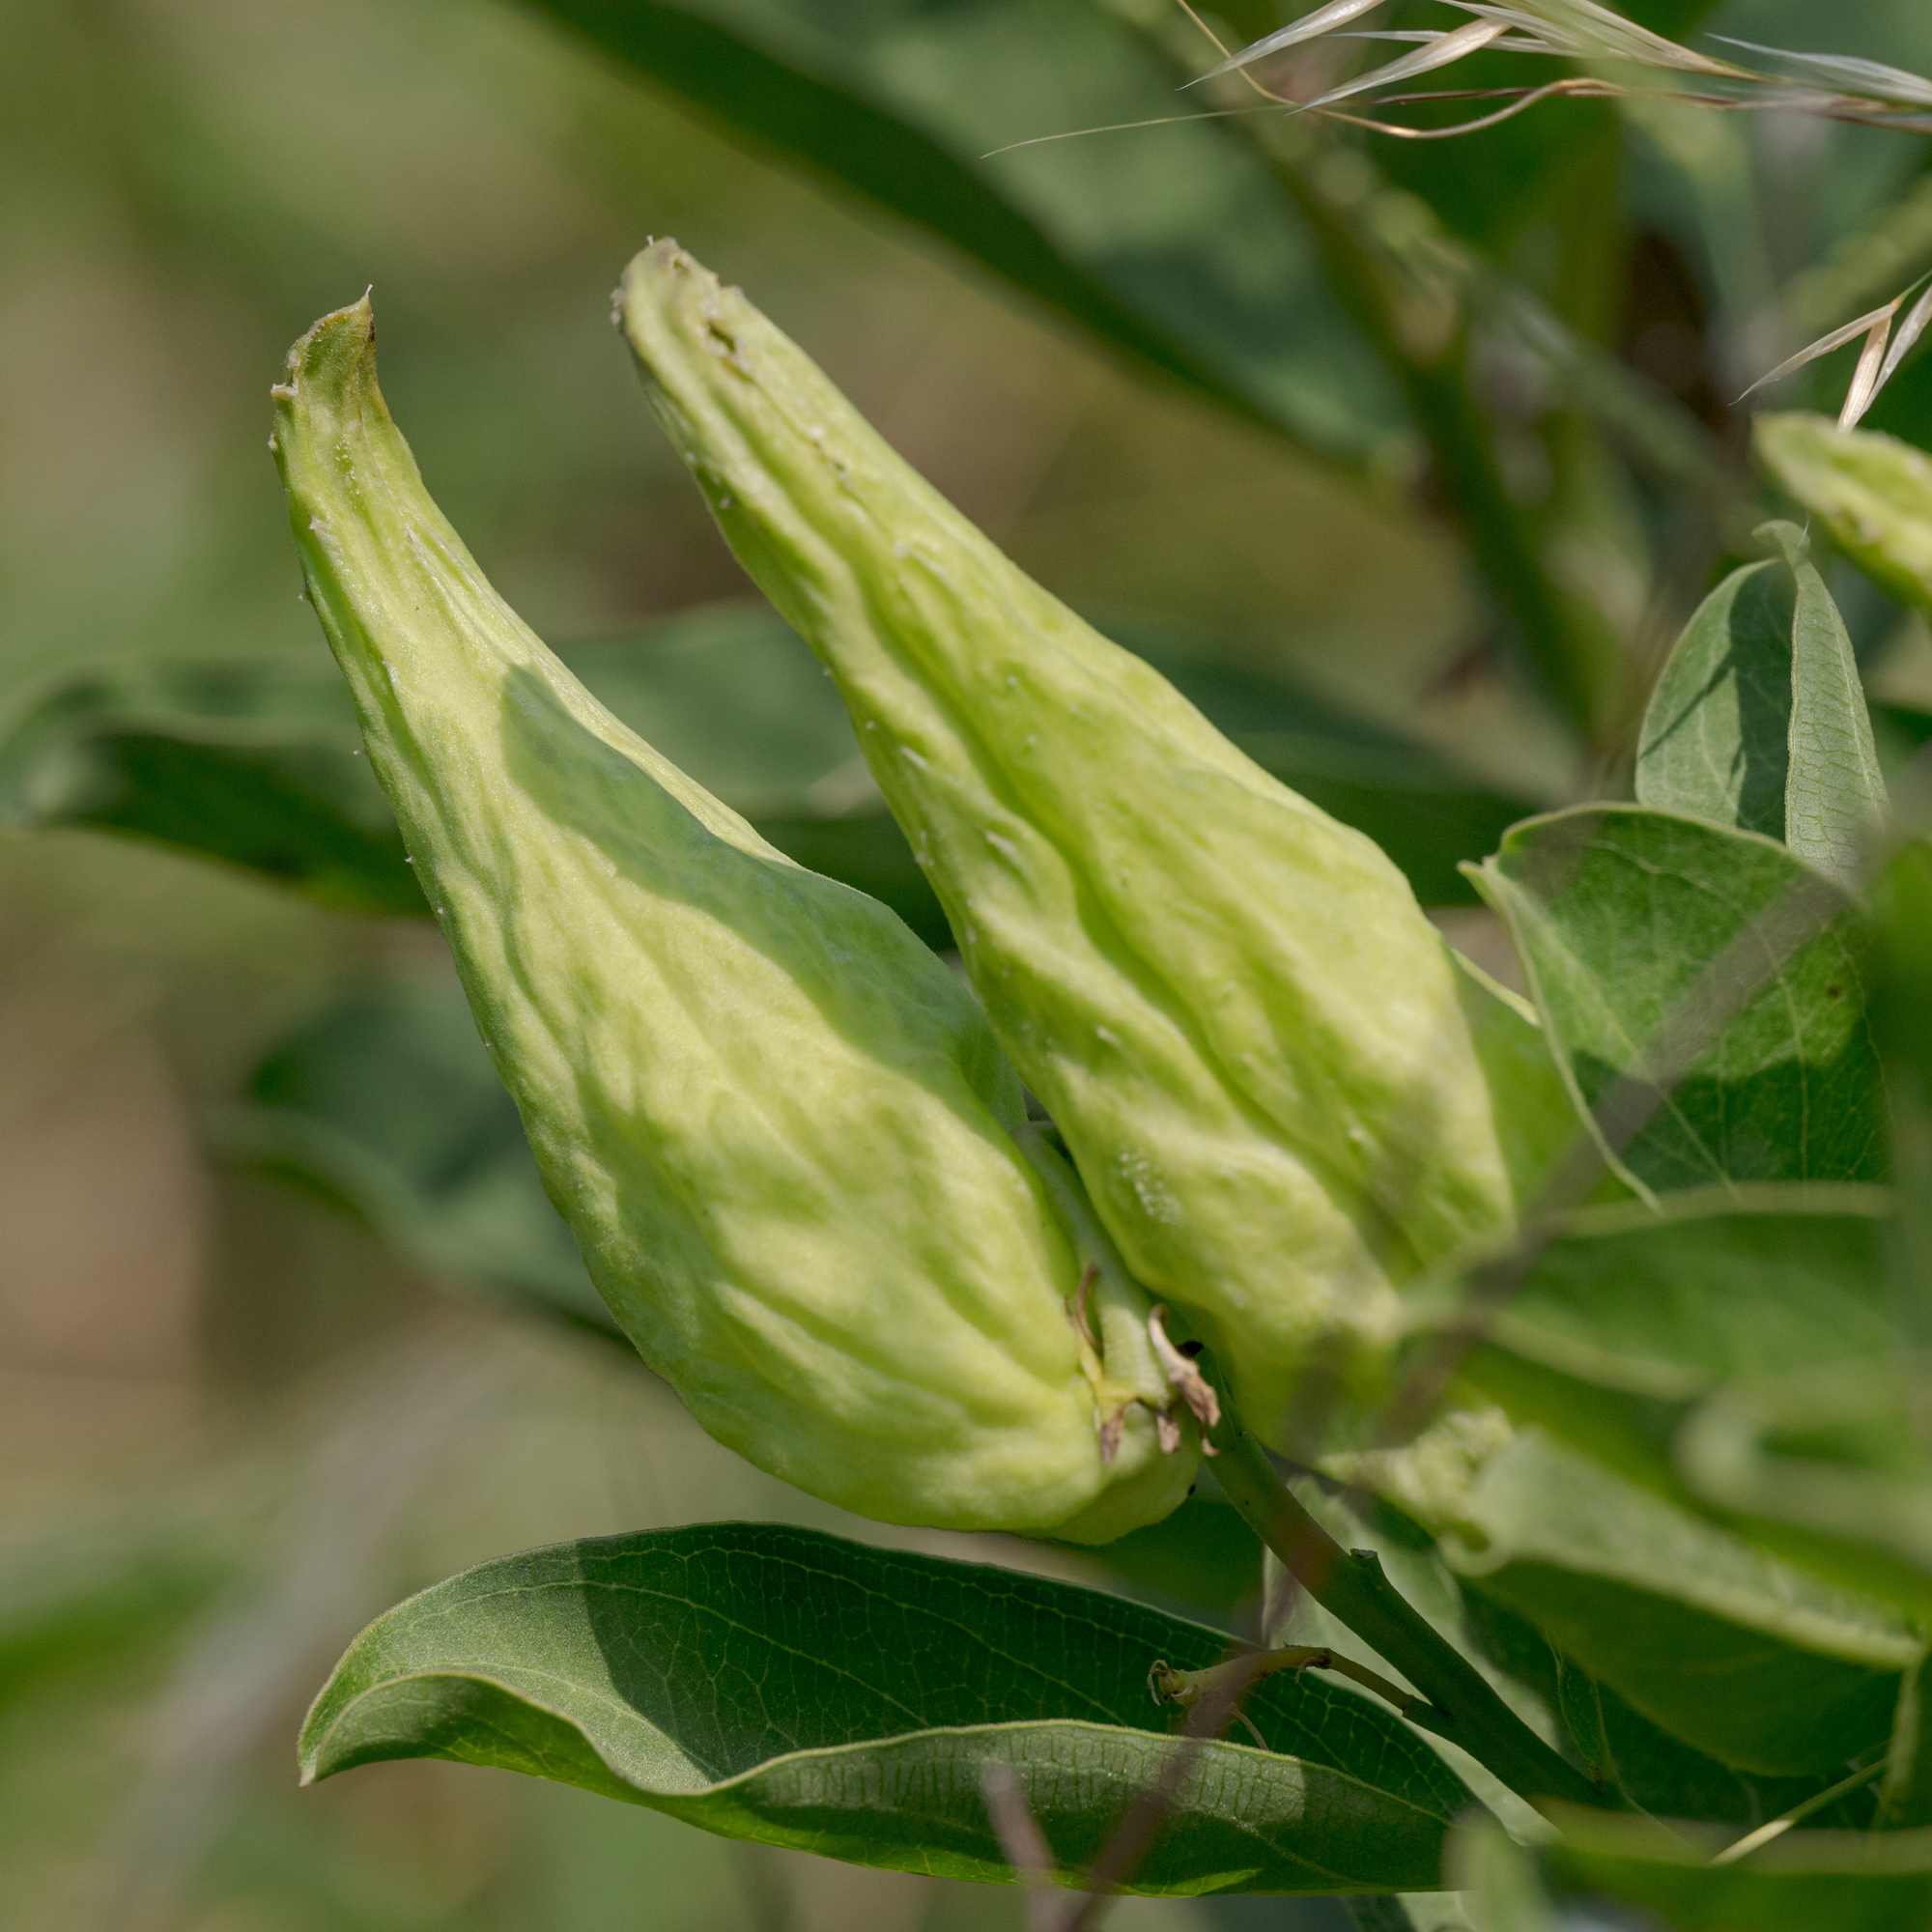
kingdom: Plantae
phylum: Tracheophyta
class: Magnoliopsida
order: Gentianales
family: Apocynaceae
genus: Asclepias
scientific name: Asclepias viridis
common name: Antelope-horns
